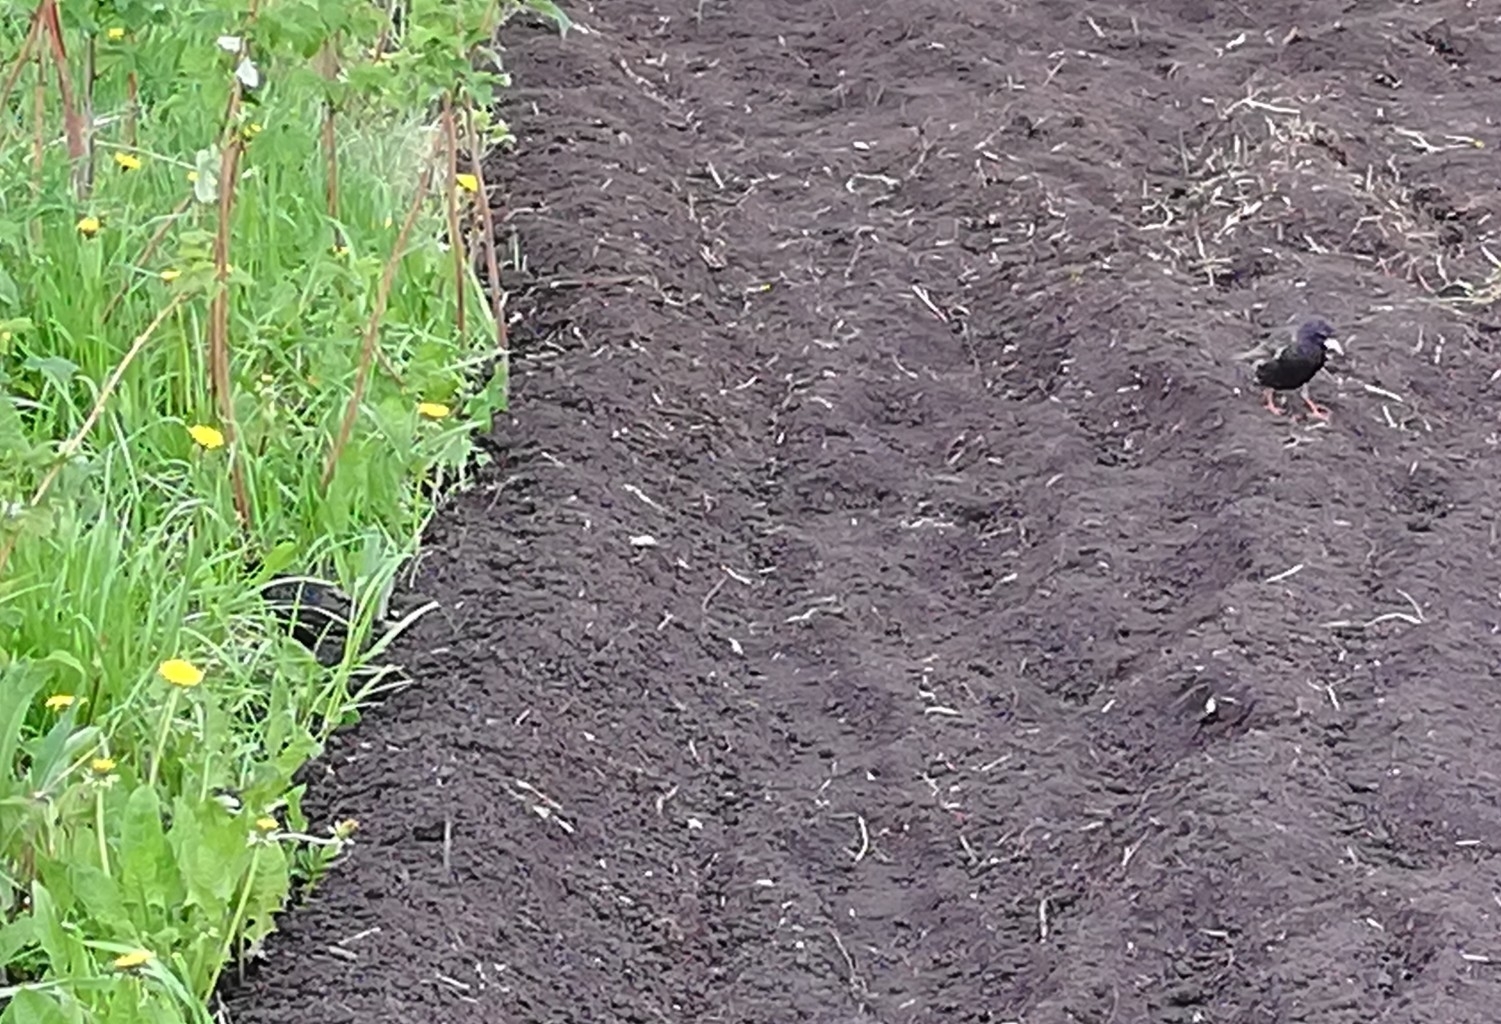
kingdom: Animalia
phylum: Chordata
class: Aves
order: Passeriformes
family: Sturnidae
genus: Sturnus
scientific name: Sturnus vulgaris
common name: Common starling
